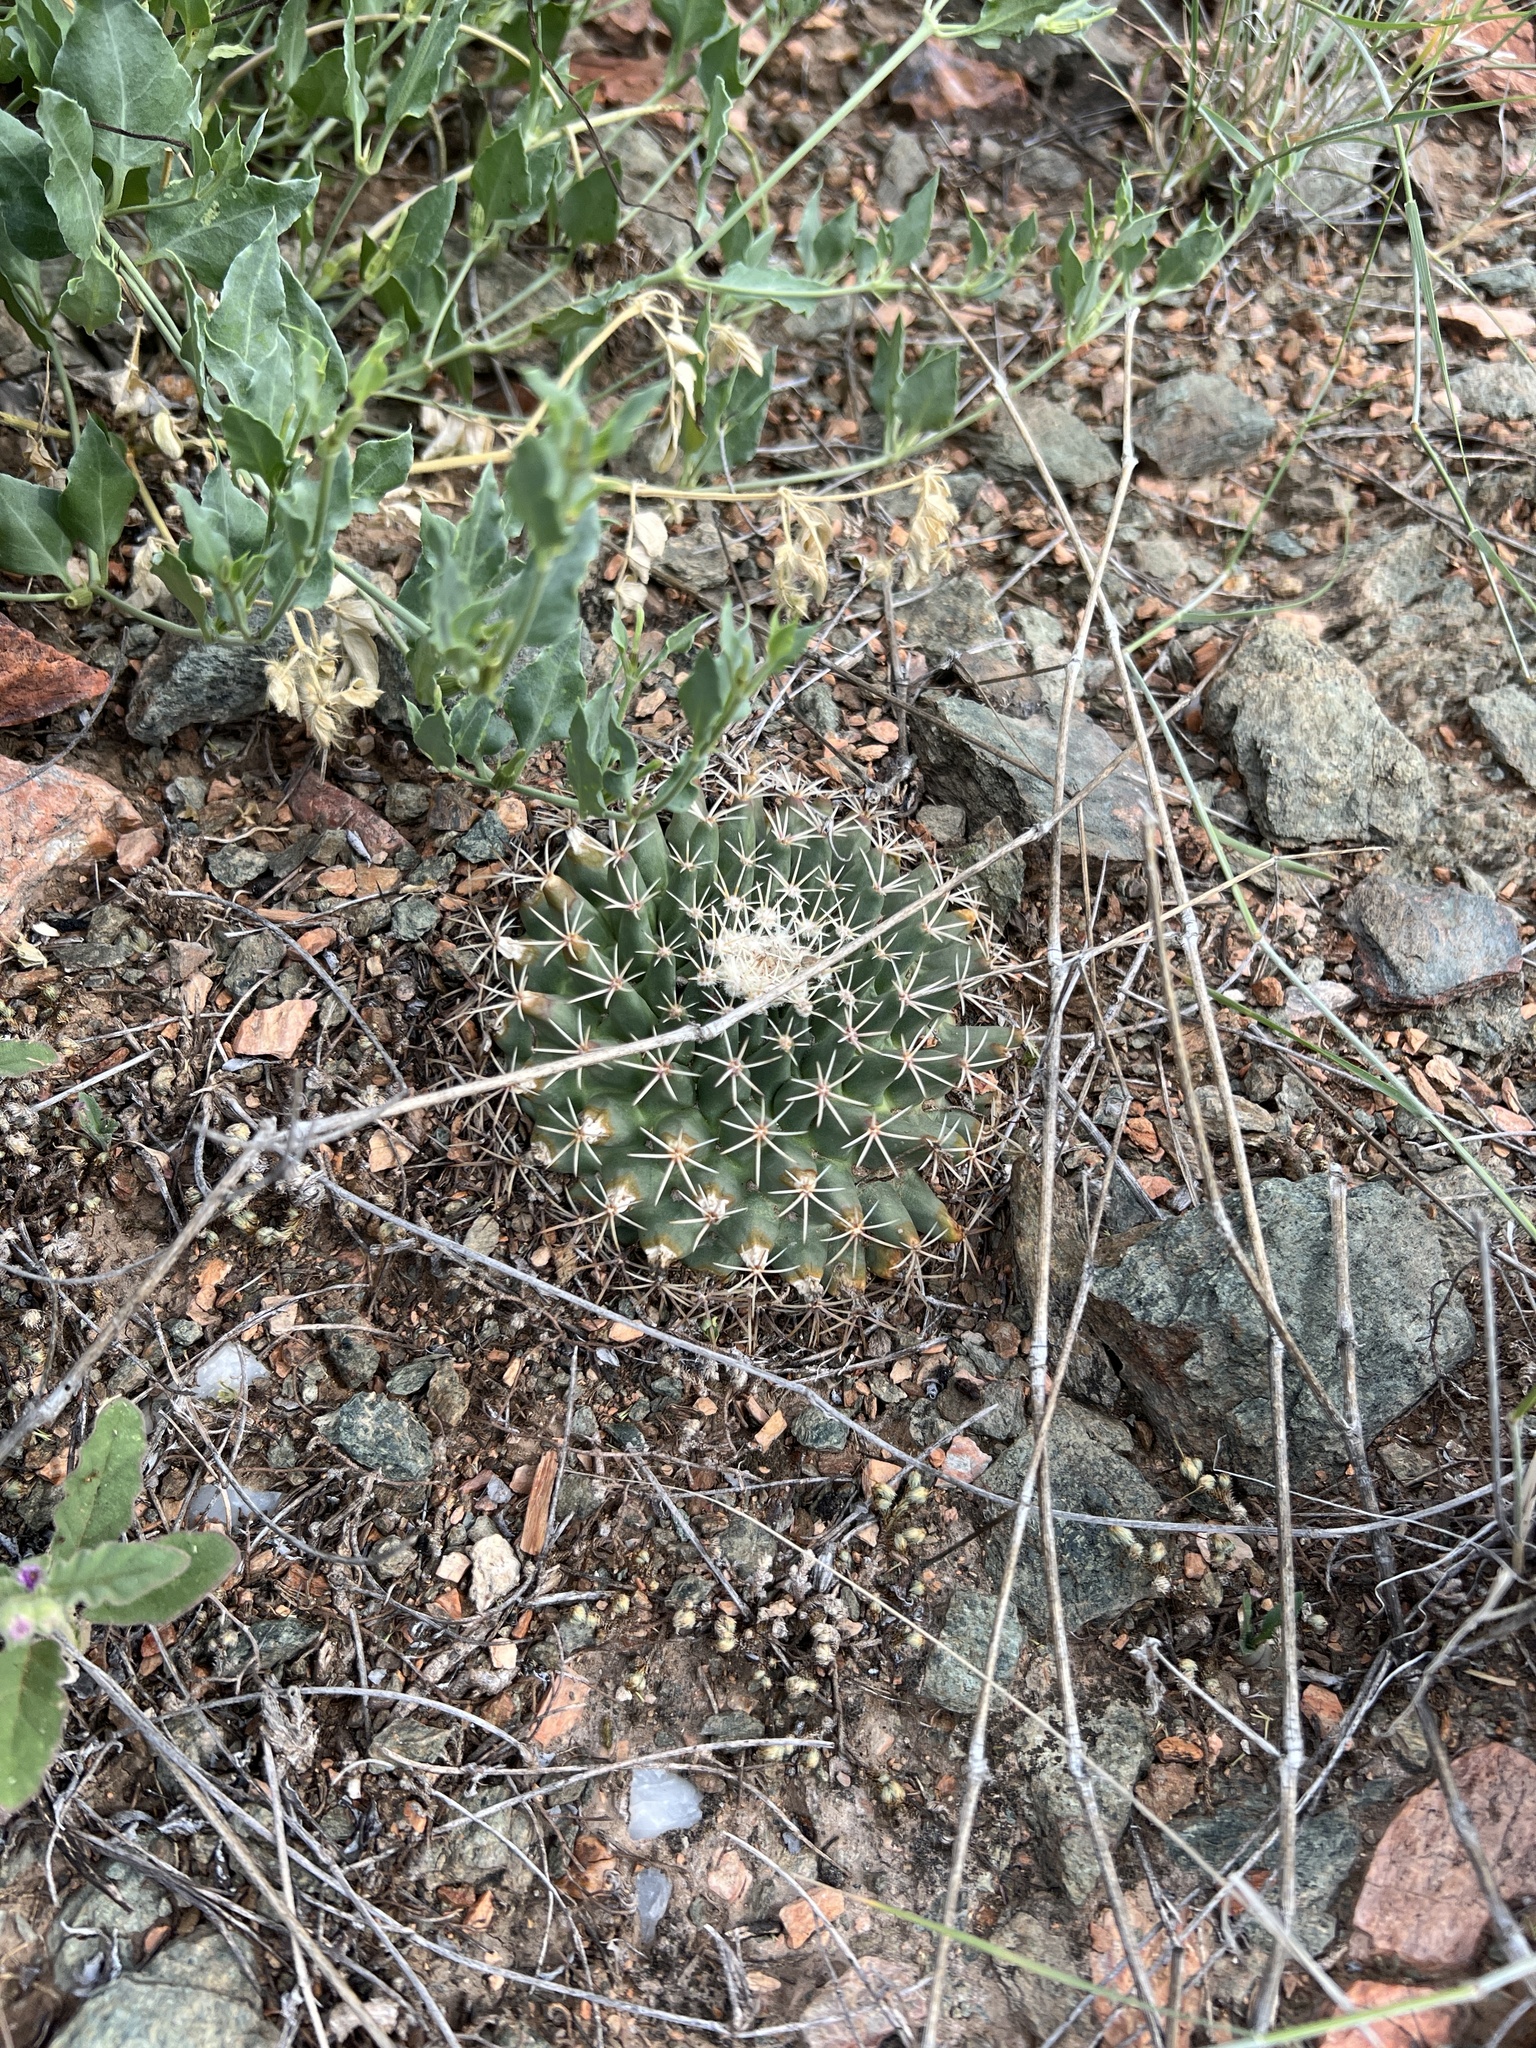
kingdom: Plantae
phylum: Tracheophyta
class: Magnoliopsida
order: Caryophyllales
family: Cactaceae
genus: Mammillaria
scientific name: Mammillaria heyderi
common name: Little nipple cactus
